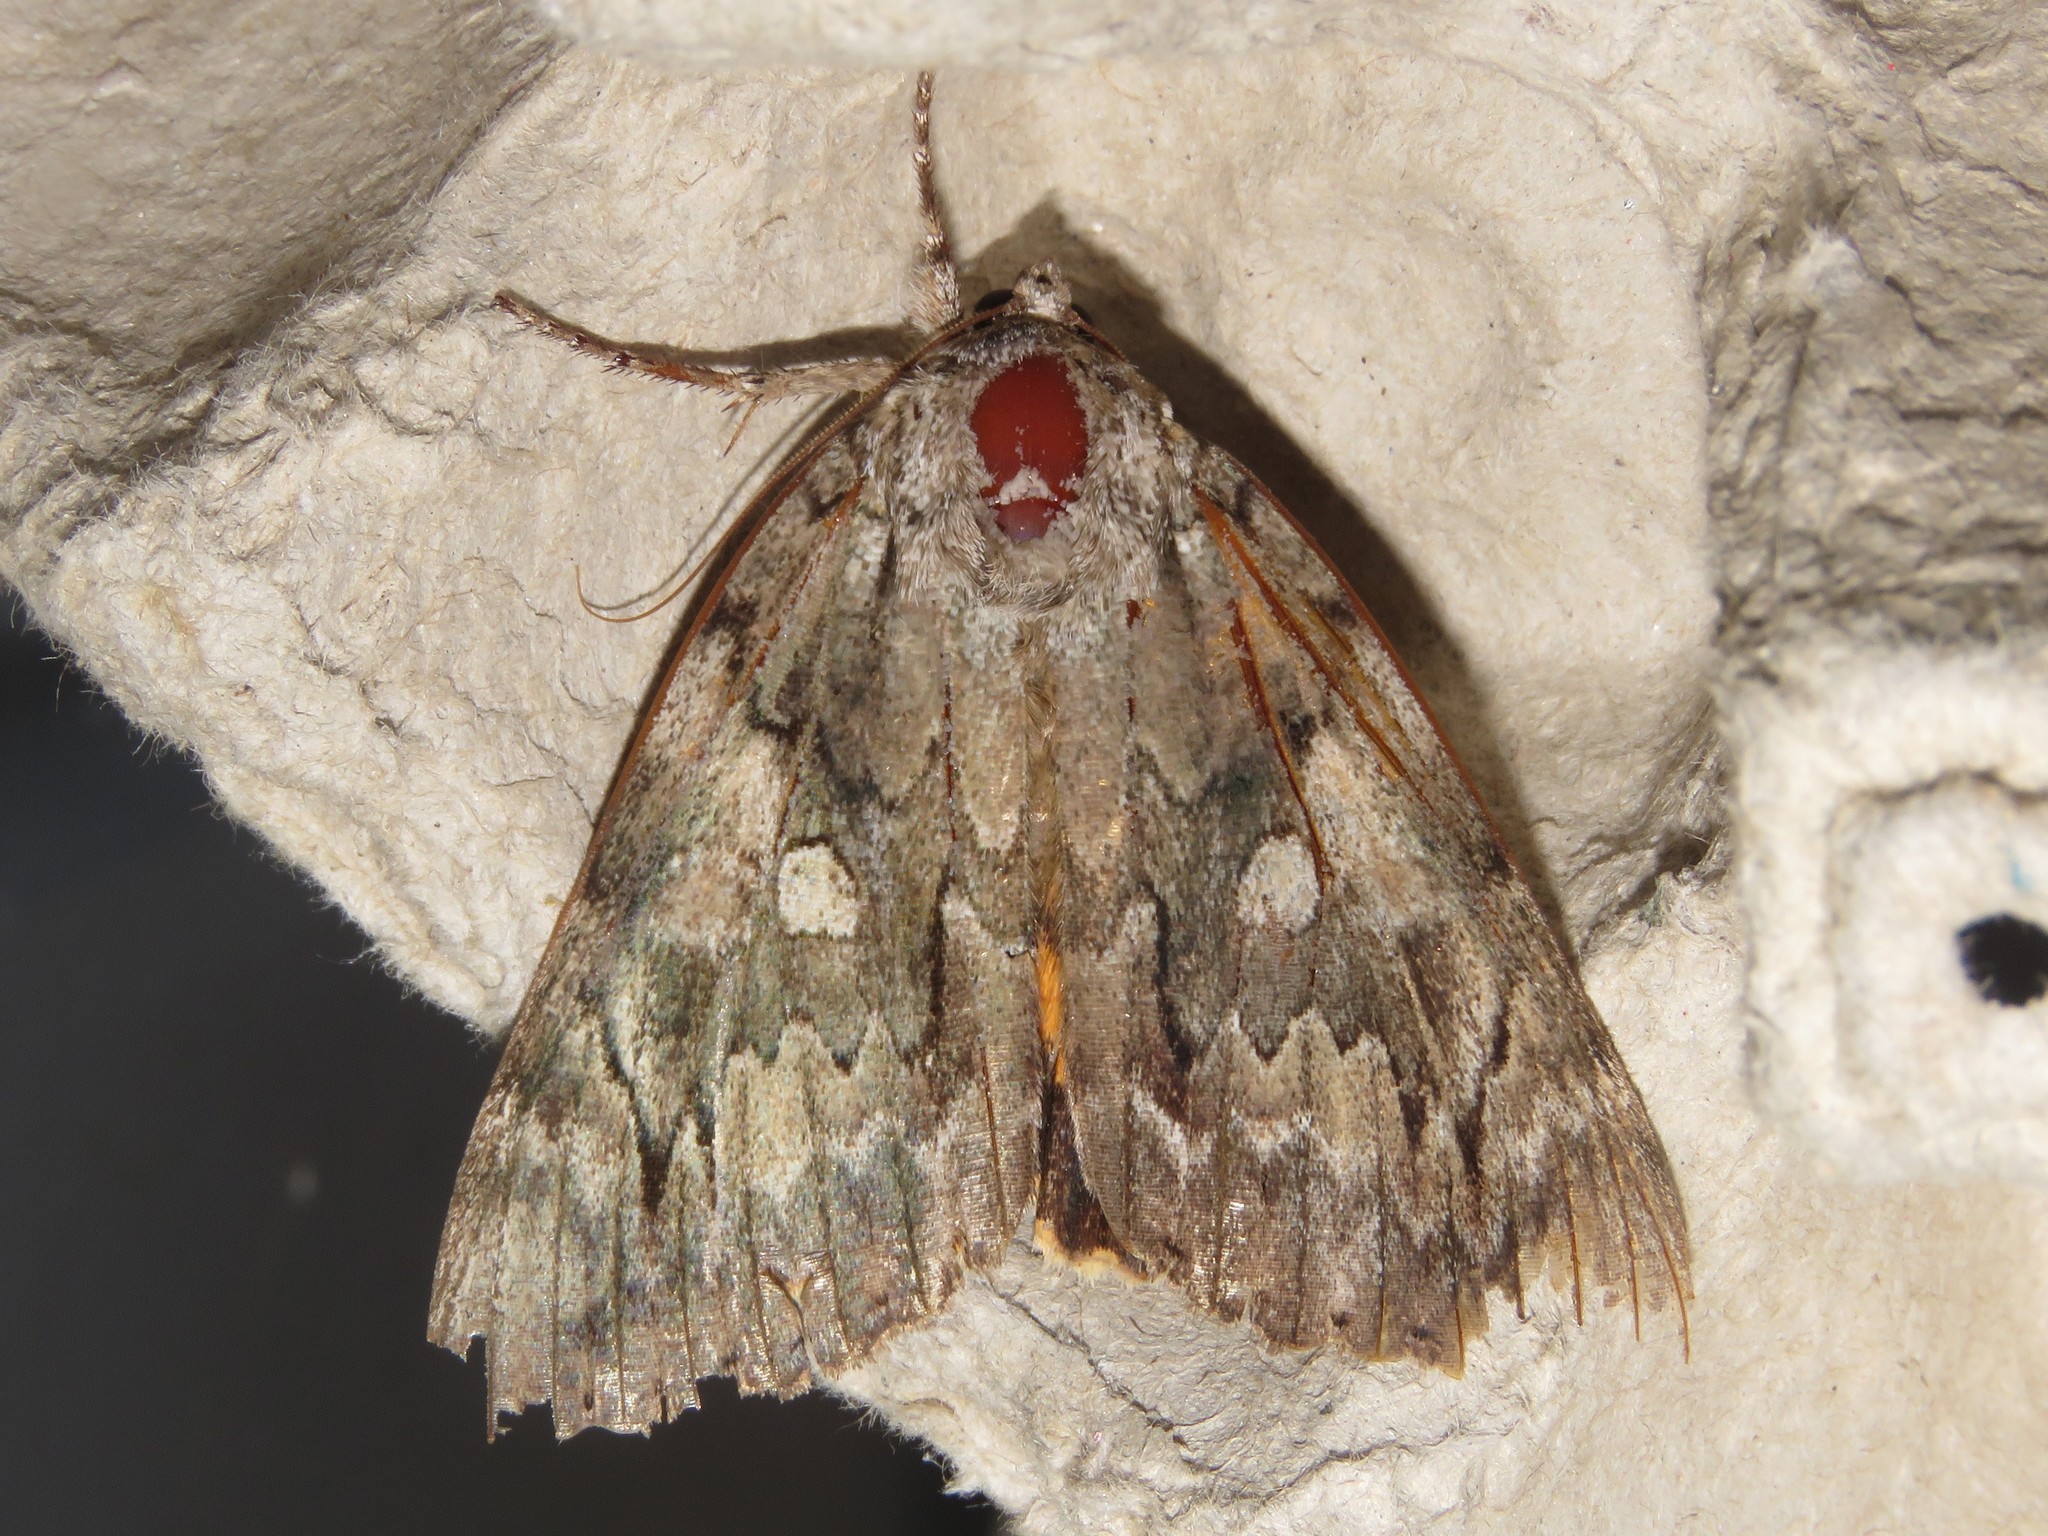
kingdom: Animalia
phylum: Arthropoda
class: Insecta
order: Lepidoptera
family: Erebidae
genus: Catocala
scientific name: Catocala neogama
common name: Bride underwing
